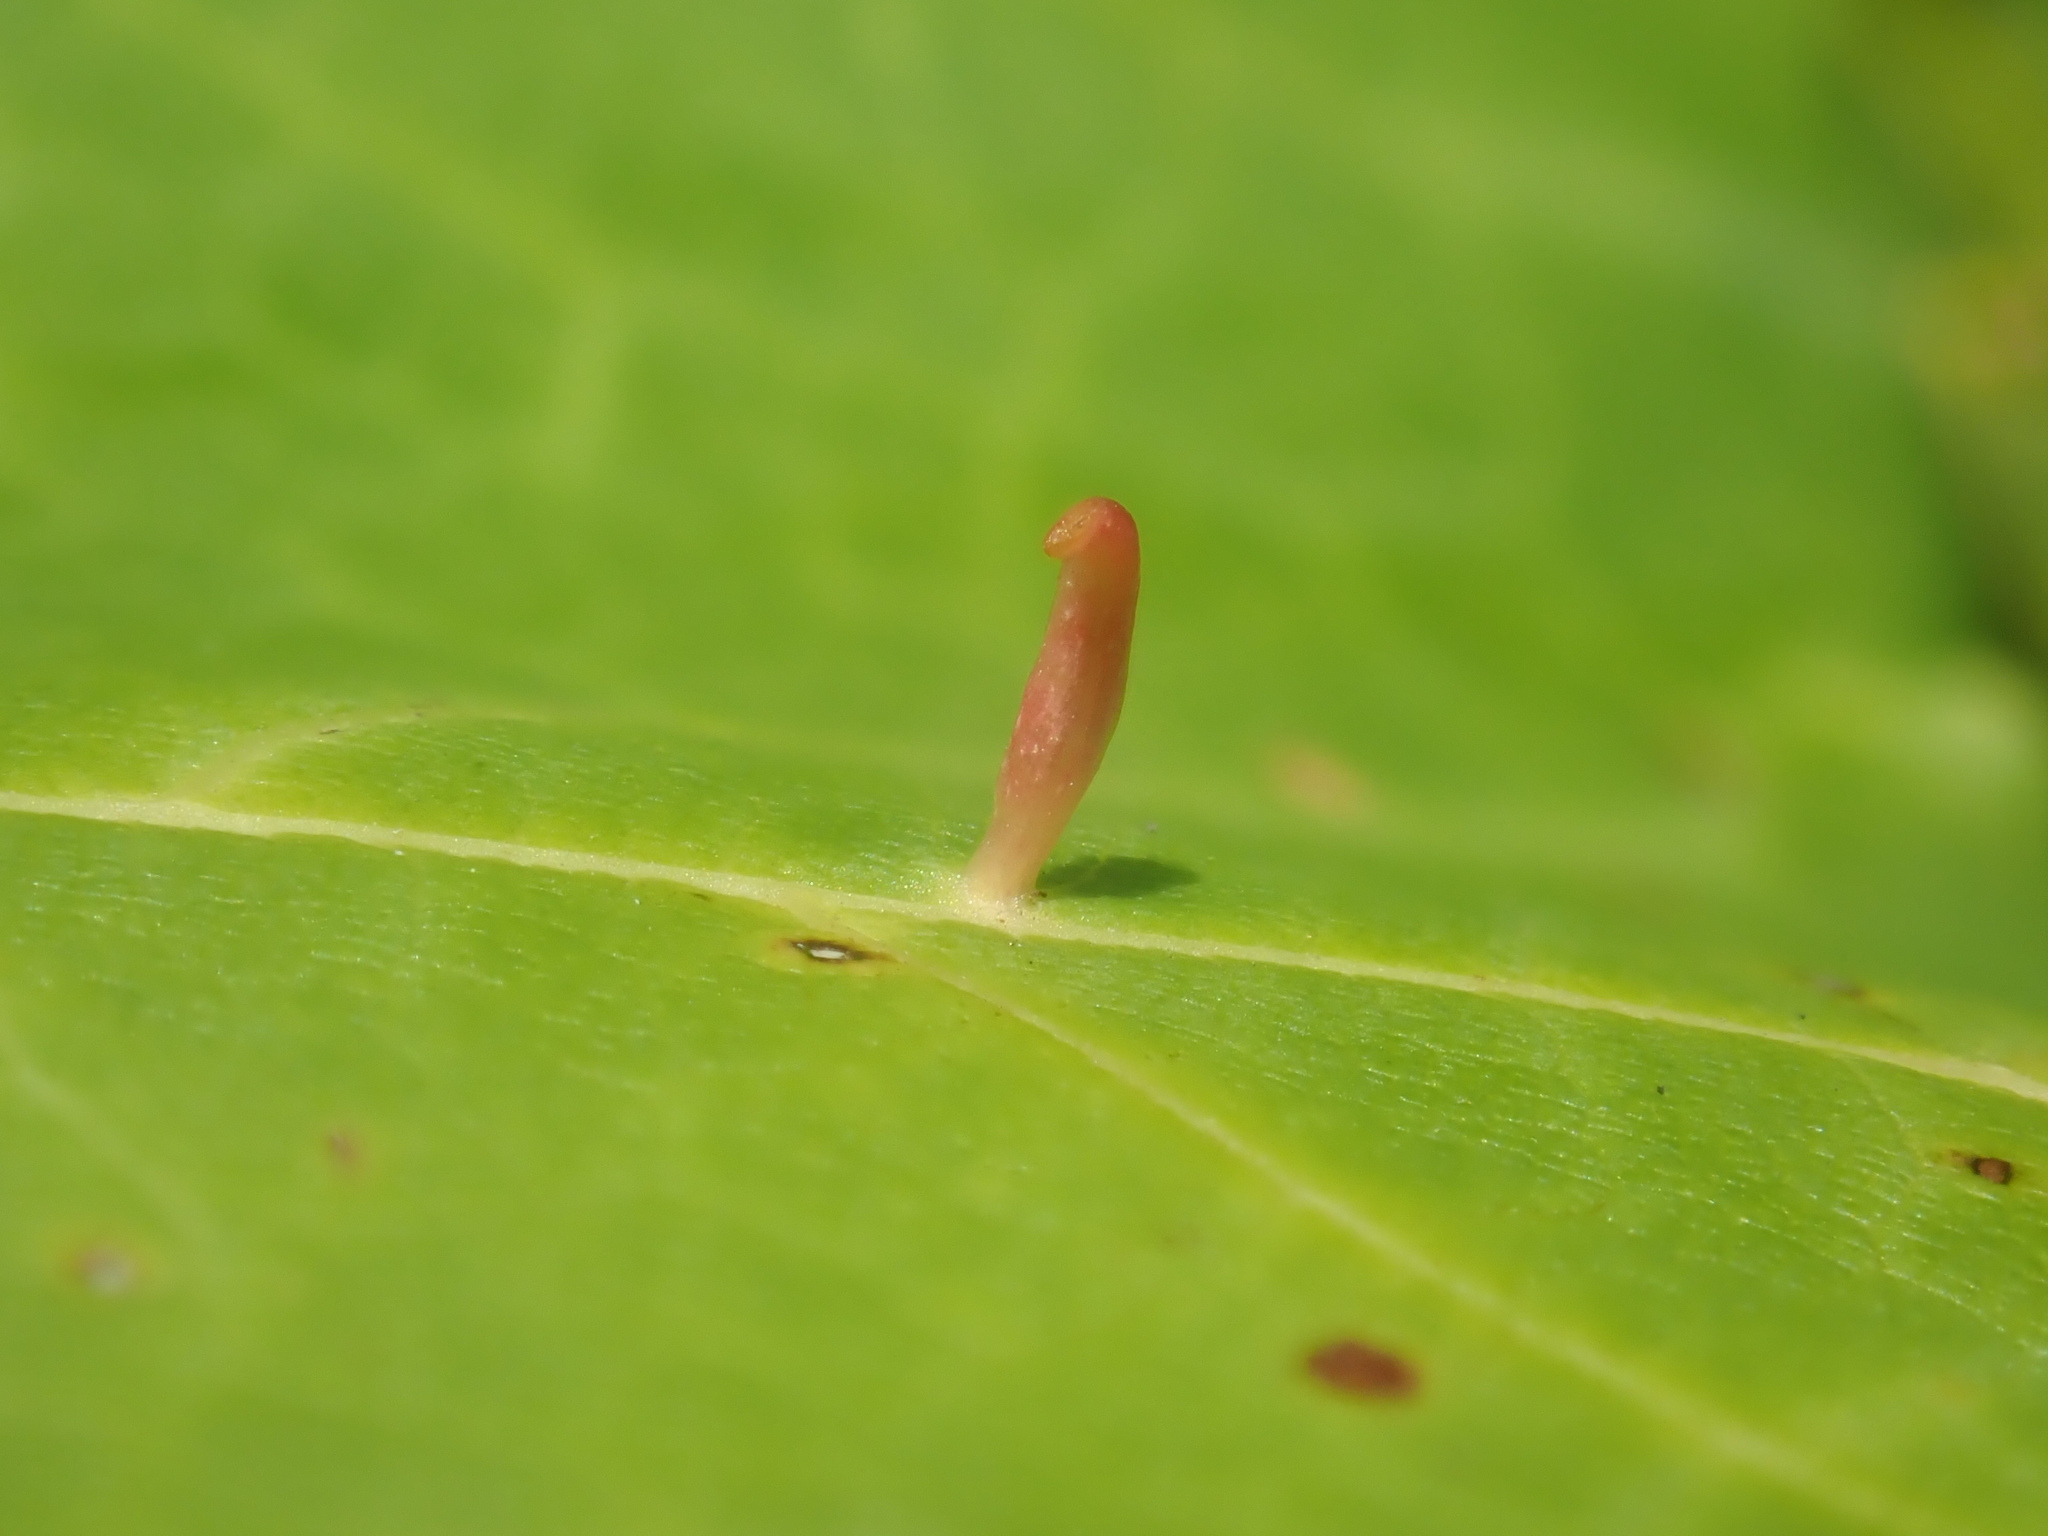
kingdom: Animalia
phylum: Arthropoda
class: Arachnida
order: Trombidiformes
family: Eriophyidae
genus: Vasates
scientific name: Vasates aceriscrumena
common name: Maple spindle gall mite
